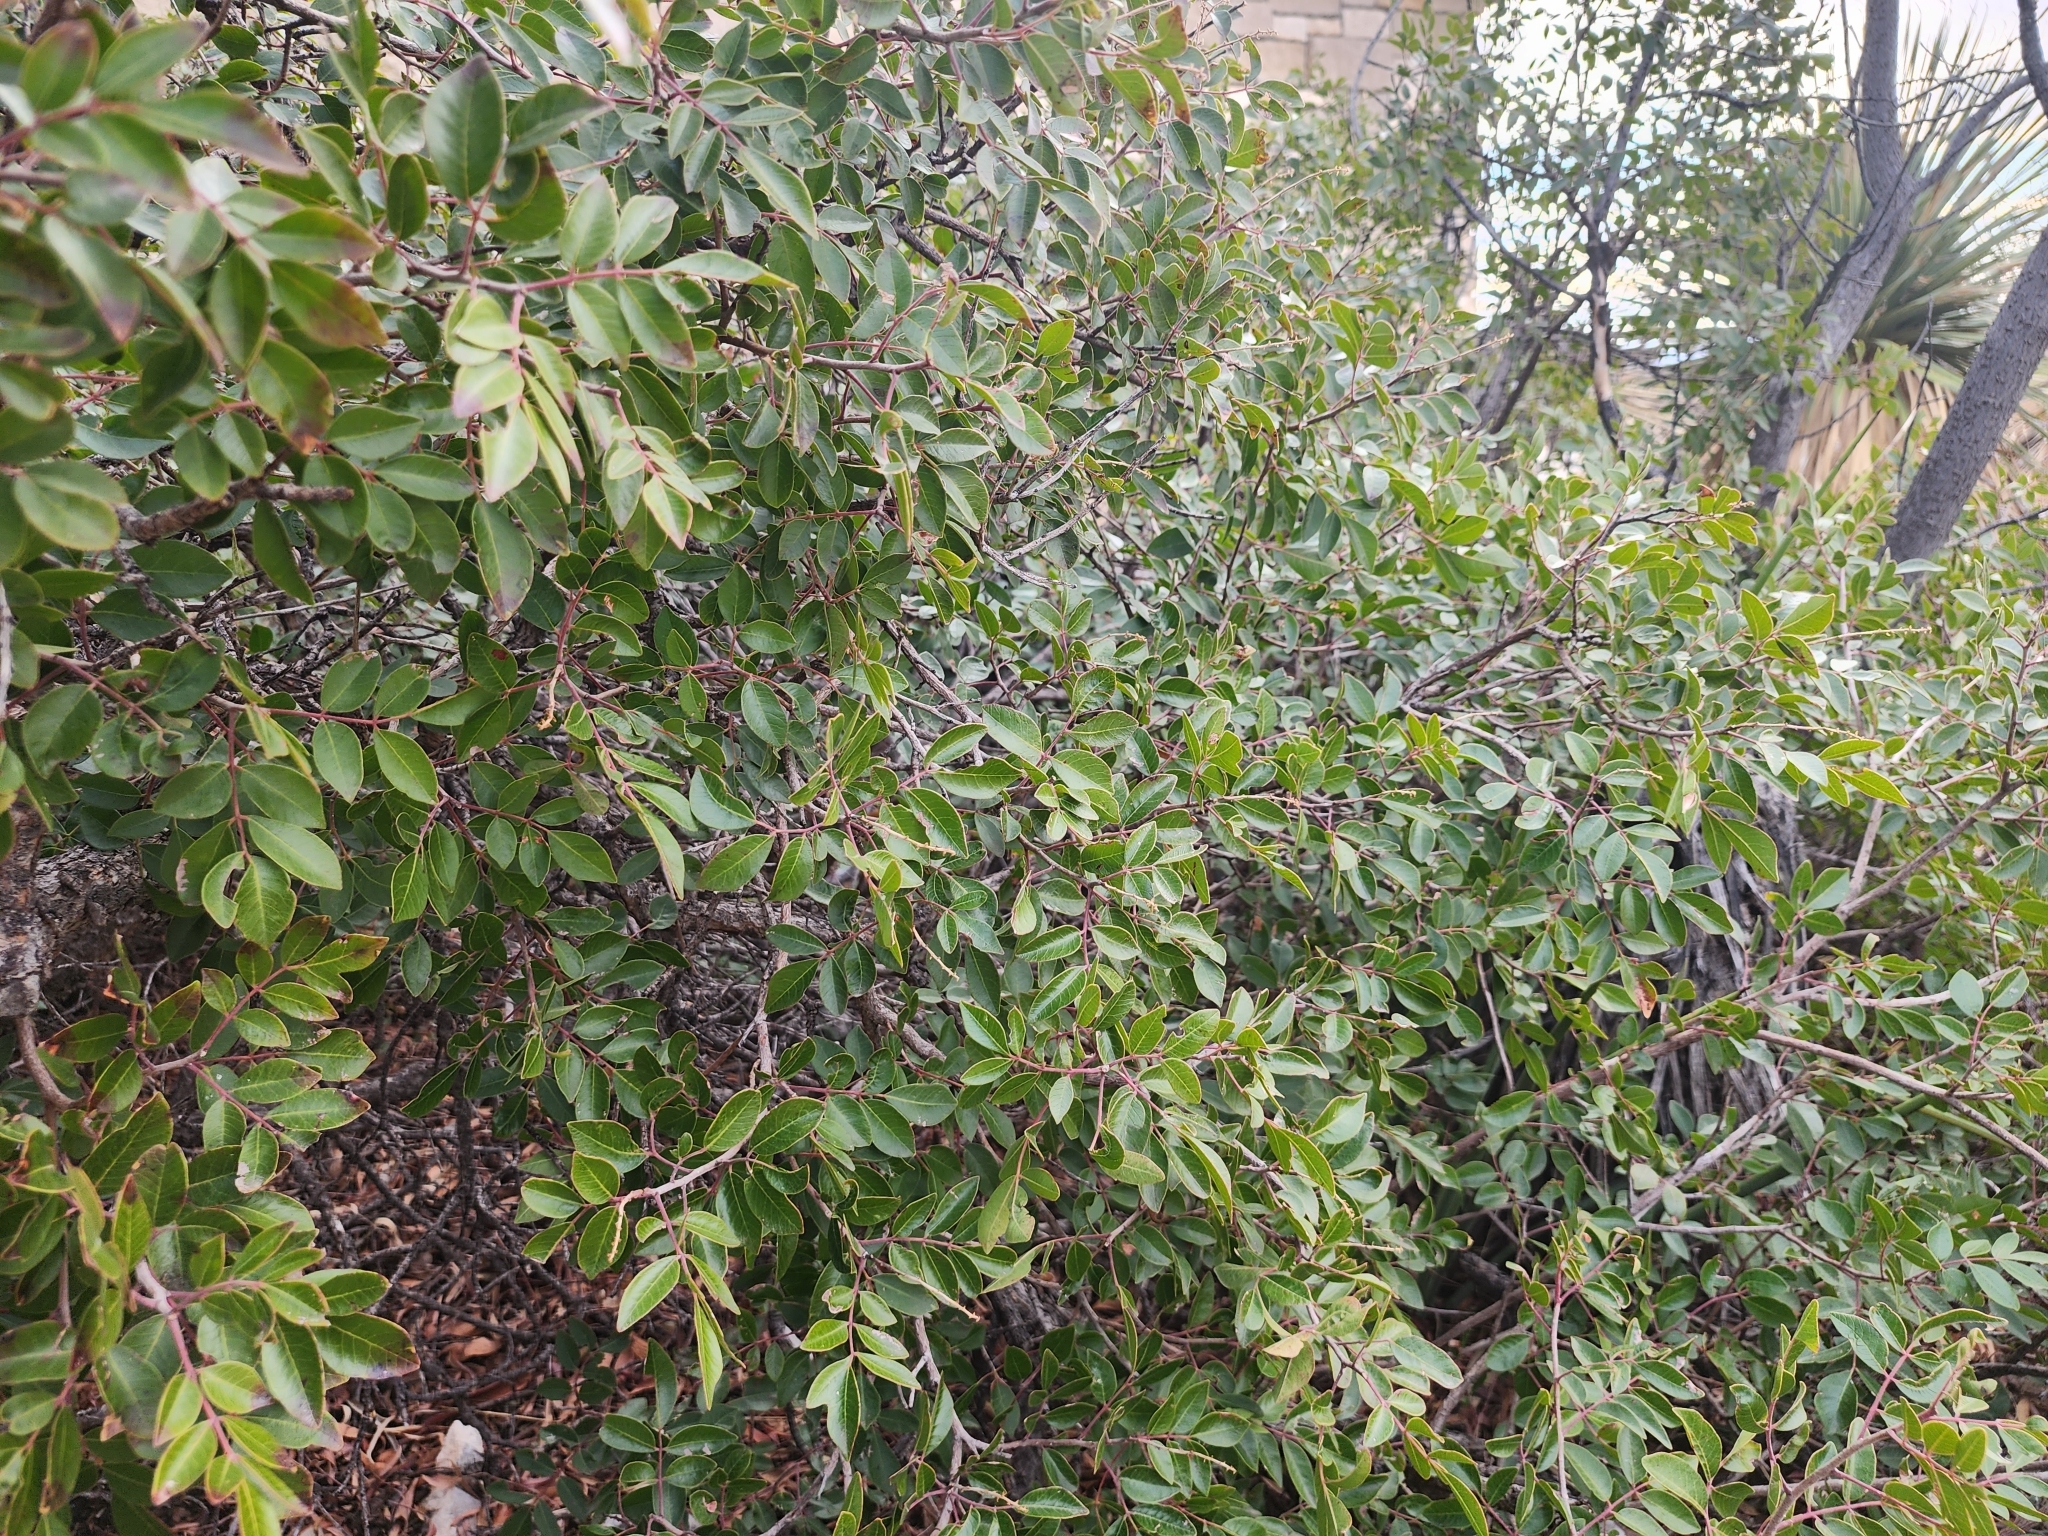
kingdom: Plantae
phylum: Tracheophyta
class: Magnoliopsida
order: Sapindales
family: Anacardiaceae
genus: Rhus
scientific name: Rhus virens
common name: Evergreen sumac
